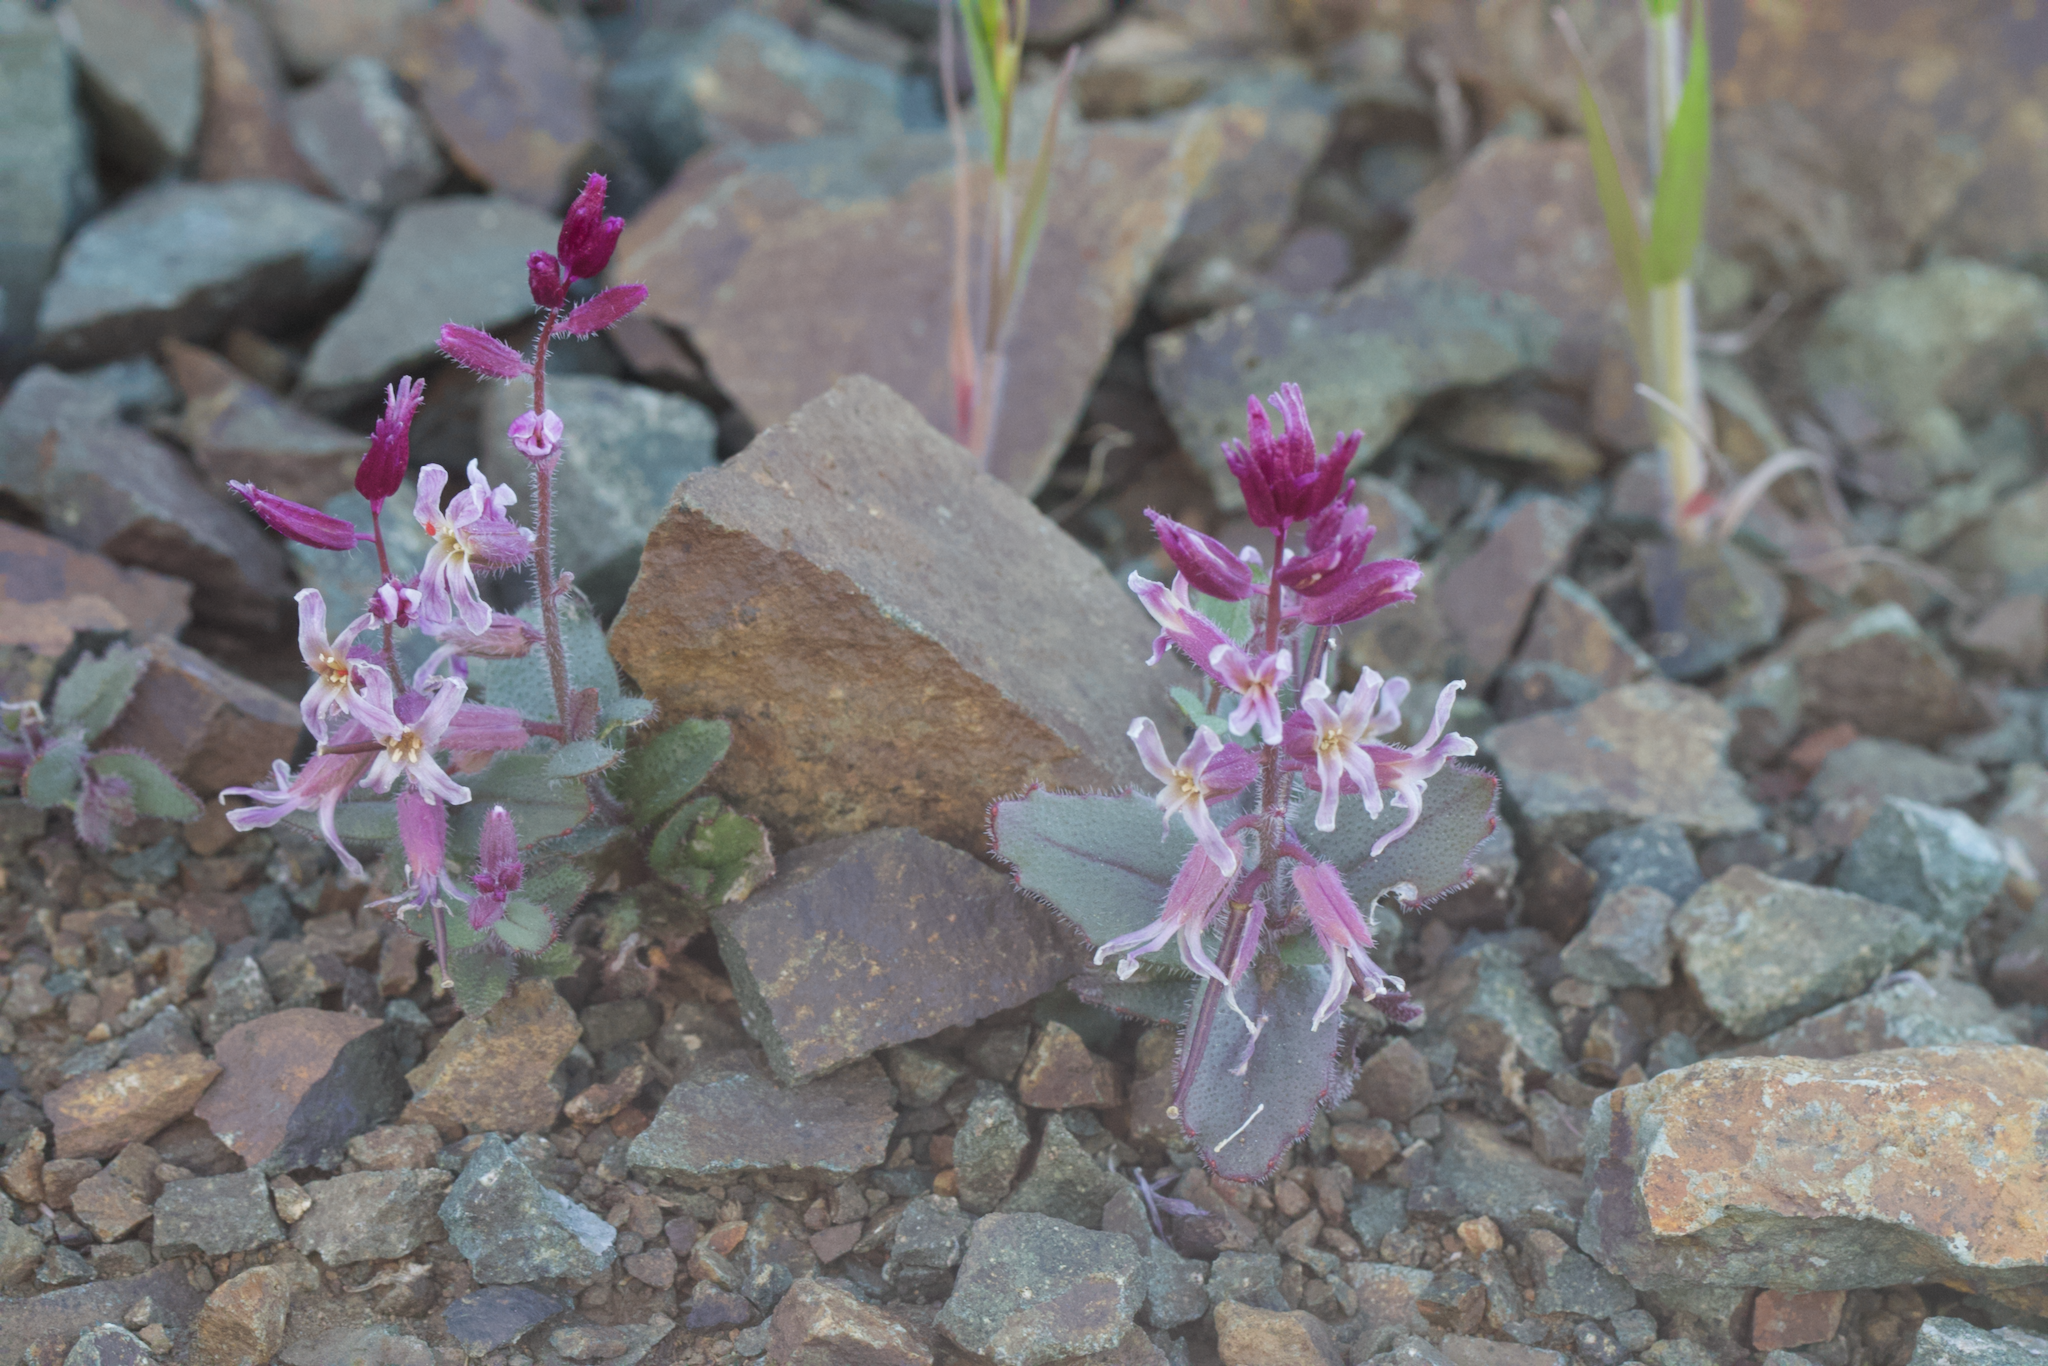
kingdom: Plantae
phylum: Tracheophyta
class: Magnoliopsida
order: Brassicales
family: Brassicaceae
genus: Streptanthus
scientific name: Streptanthus hispidus
